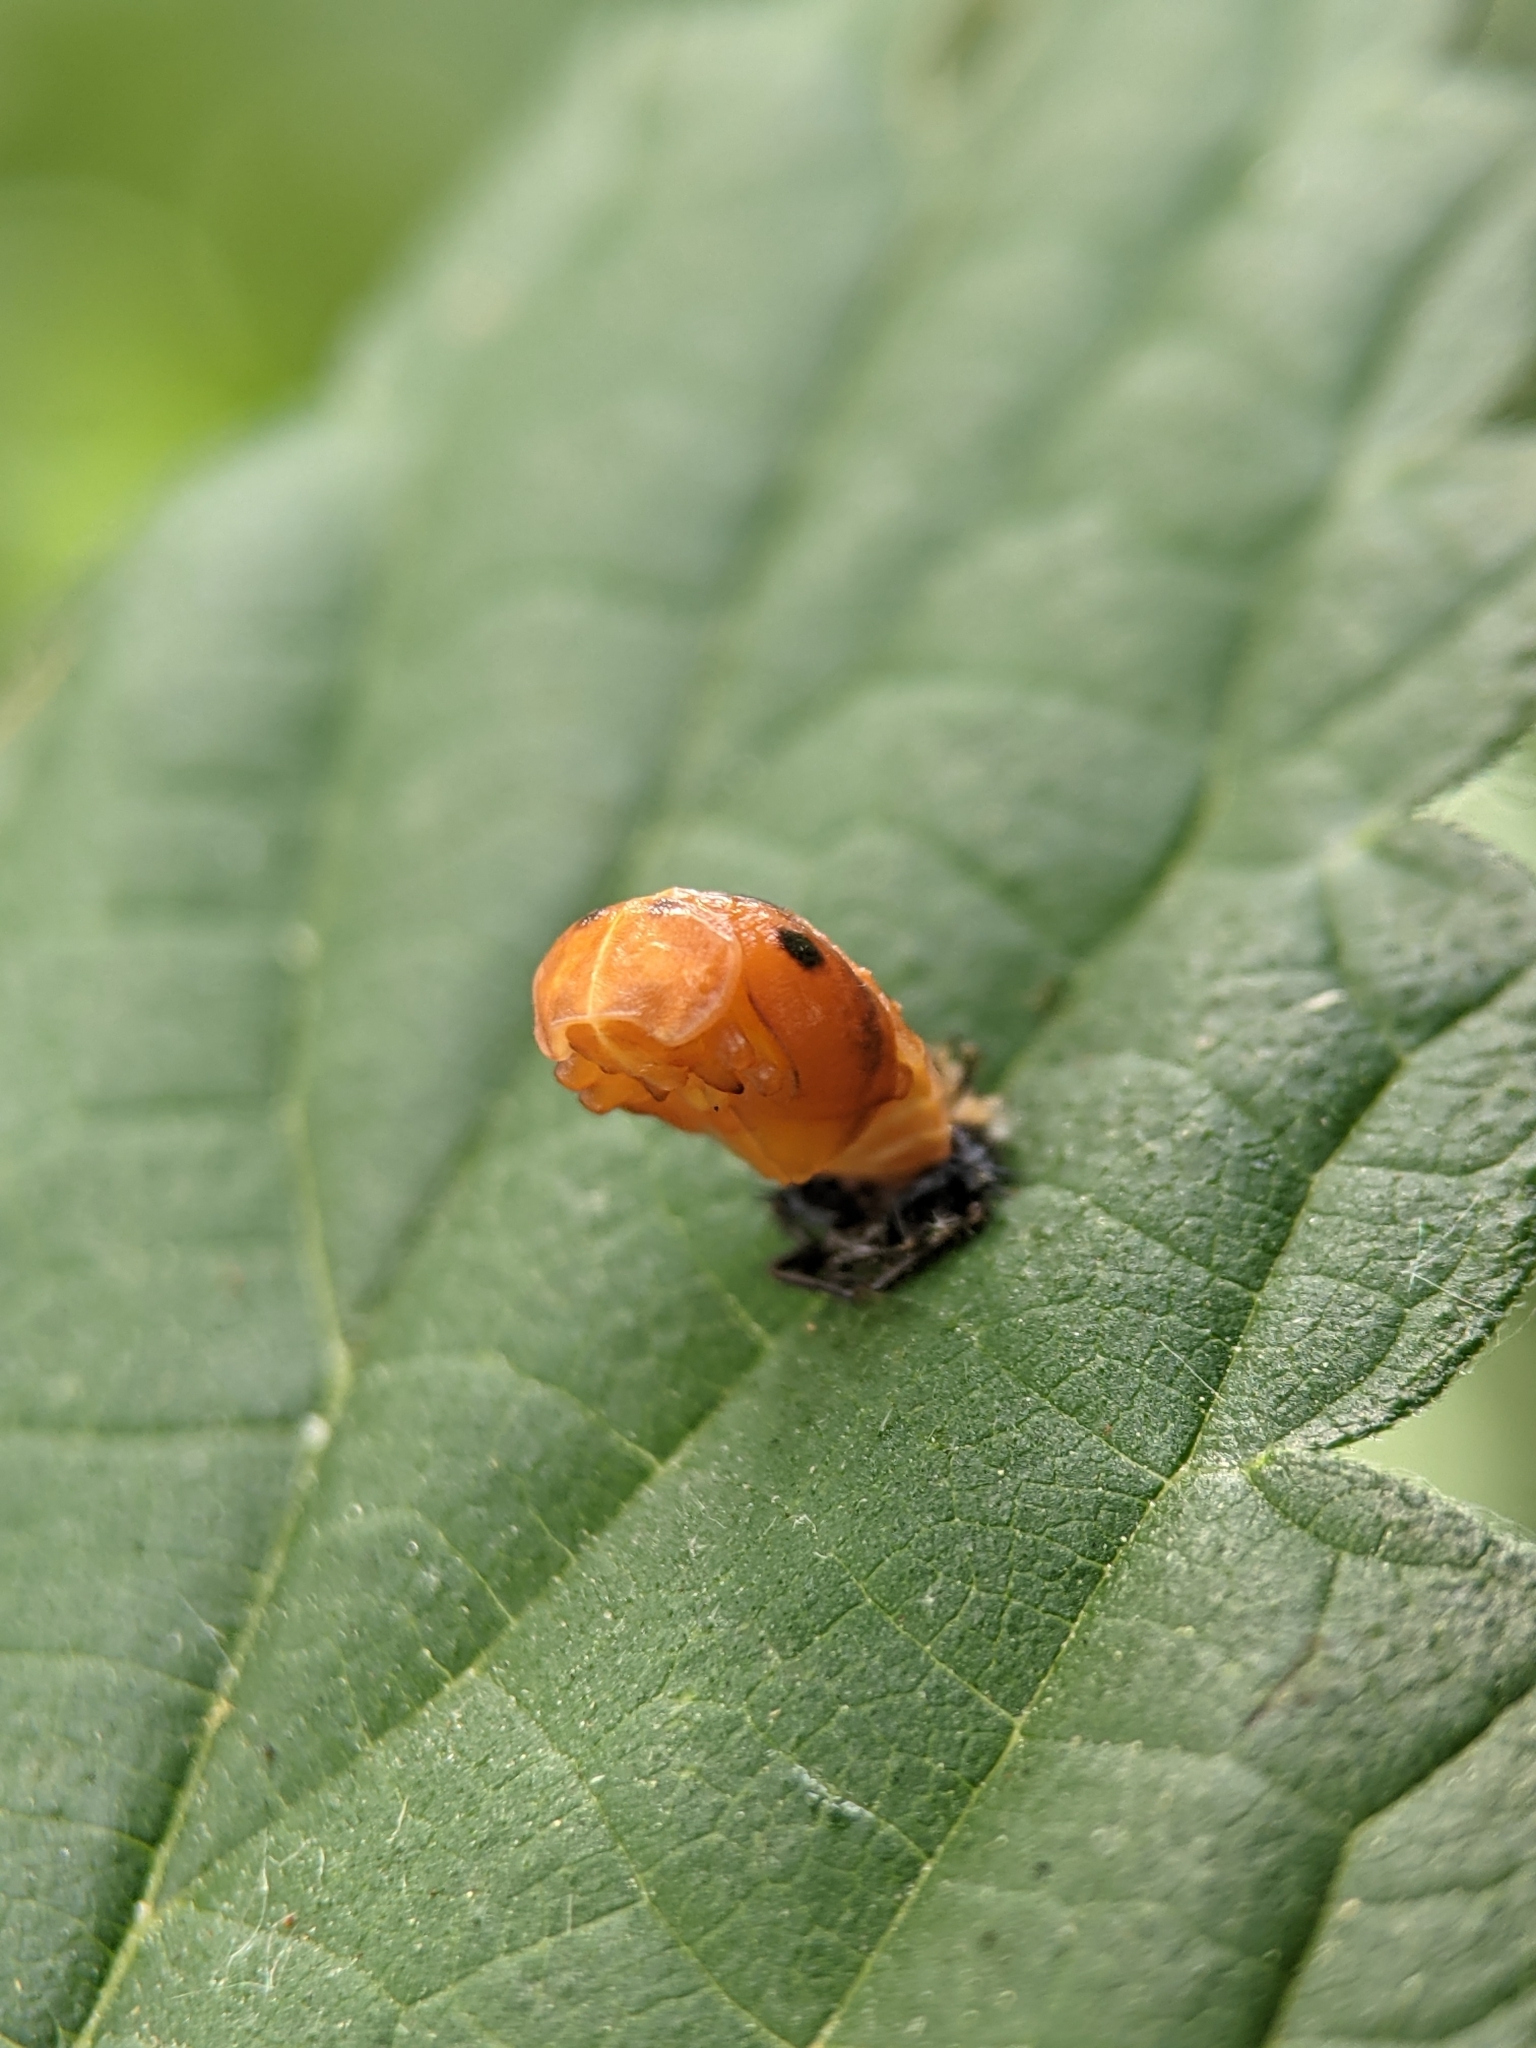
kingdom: Animalia
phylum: Arthropoda
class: Insecta
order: Coleoptera
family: Coccinellidae
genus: Harmonia
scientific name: Harmonia axyridis
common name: Harlequin ladybird
